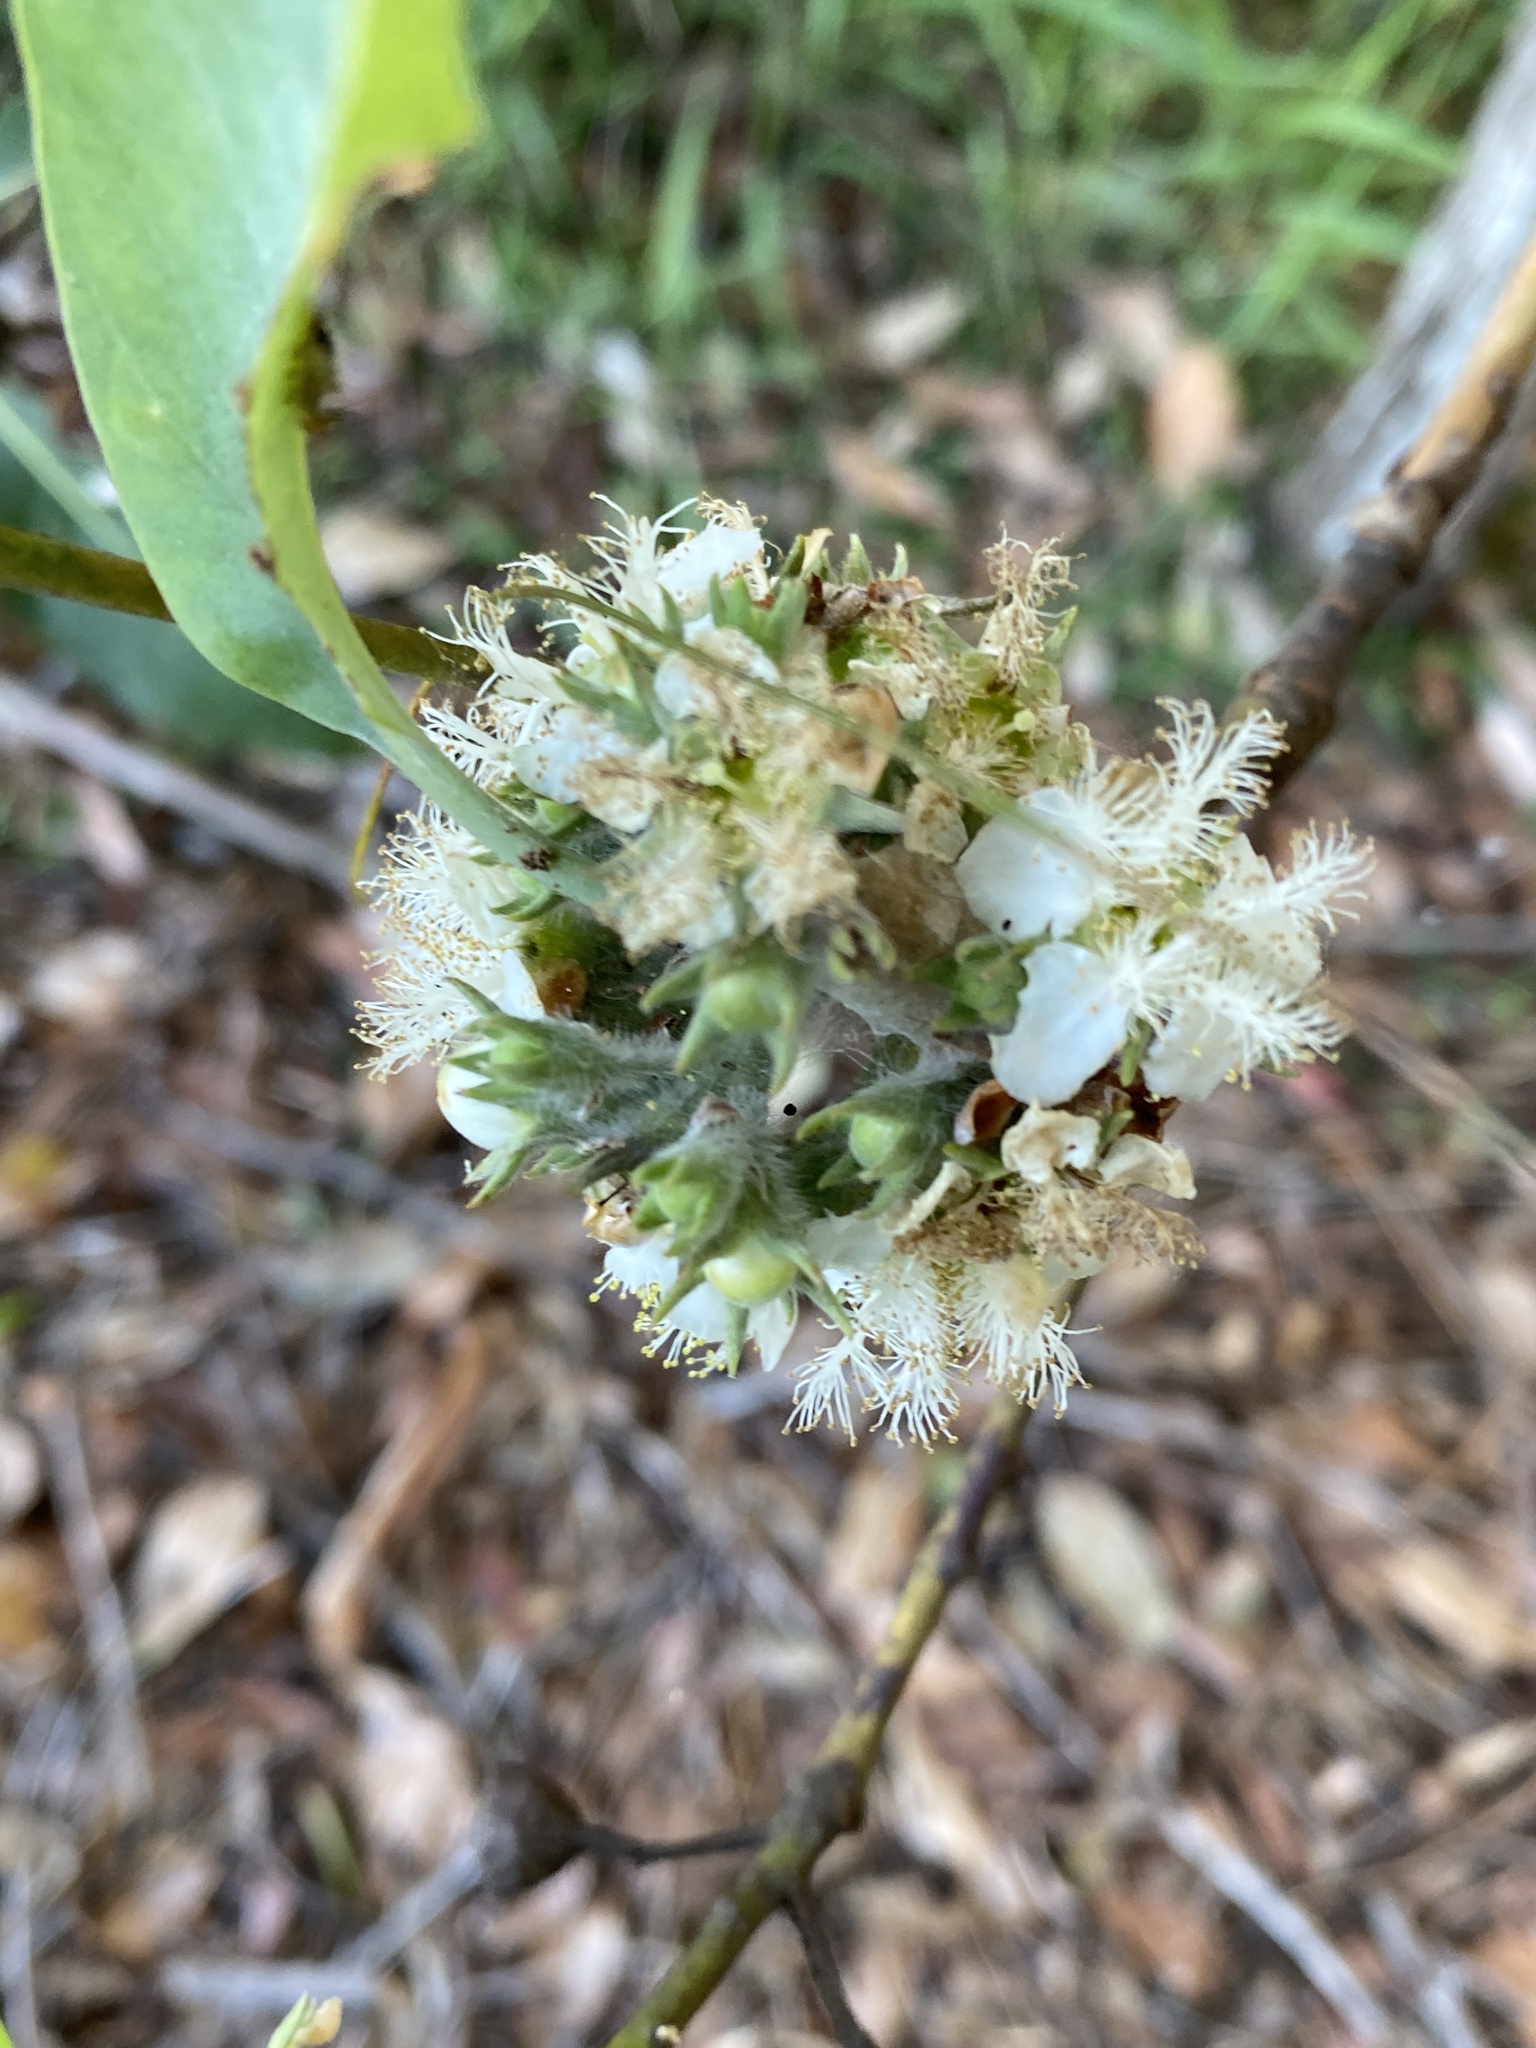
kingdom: Plantae
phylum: Tracheophyta
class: Magnoliopsida
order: Myrtales
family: Myrtaceae
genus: Lophostemon
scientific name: Lophostemon confertus
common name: Brisbane box
